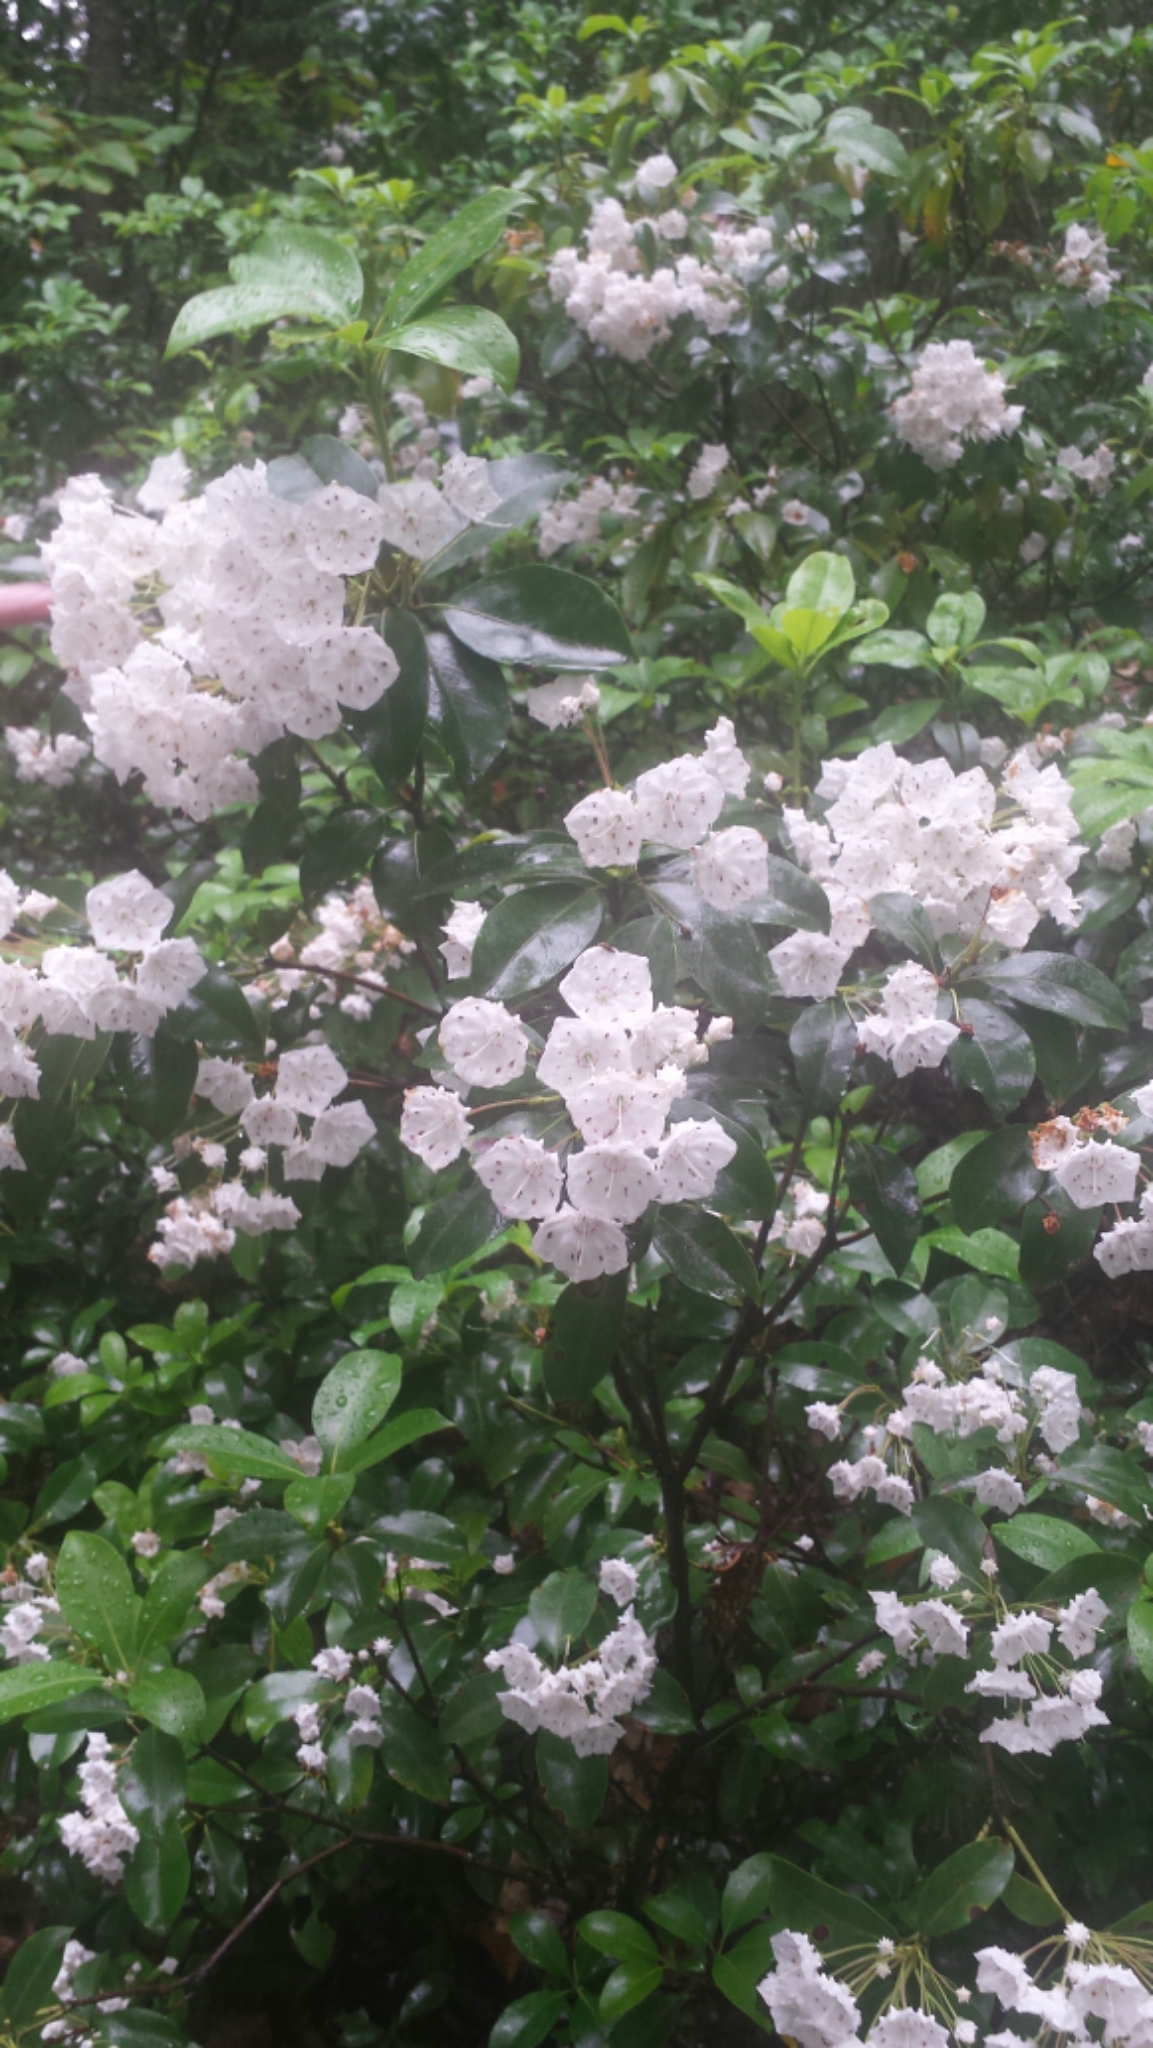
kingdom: Plantae
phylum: Tracheophyta
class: Magnoliopsida
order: Ericales
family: Ericaceae
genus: Kalmia
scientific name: Kalmia latifolia
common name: Mountain-laurel
